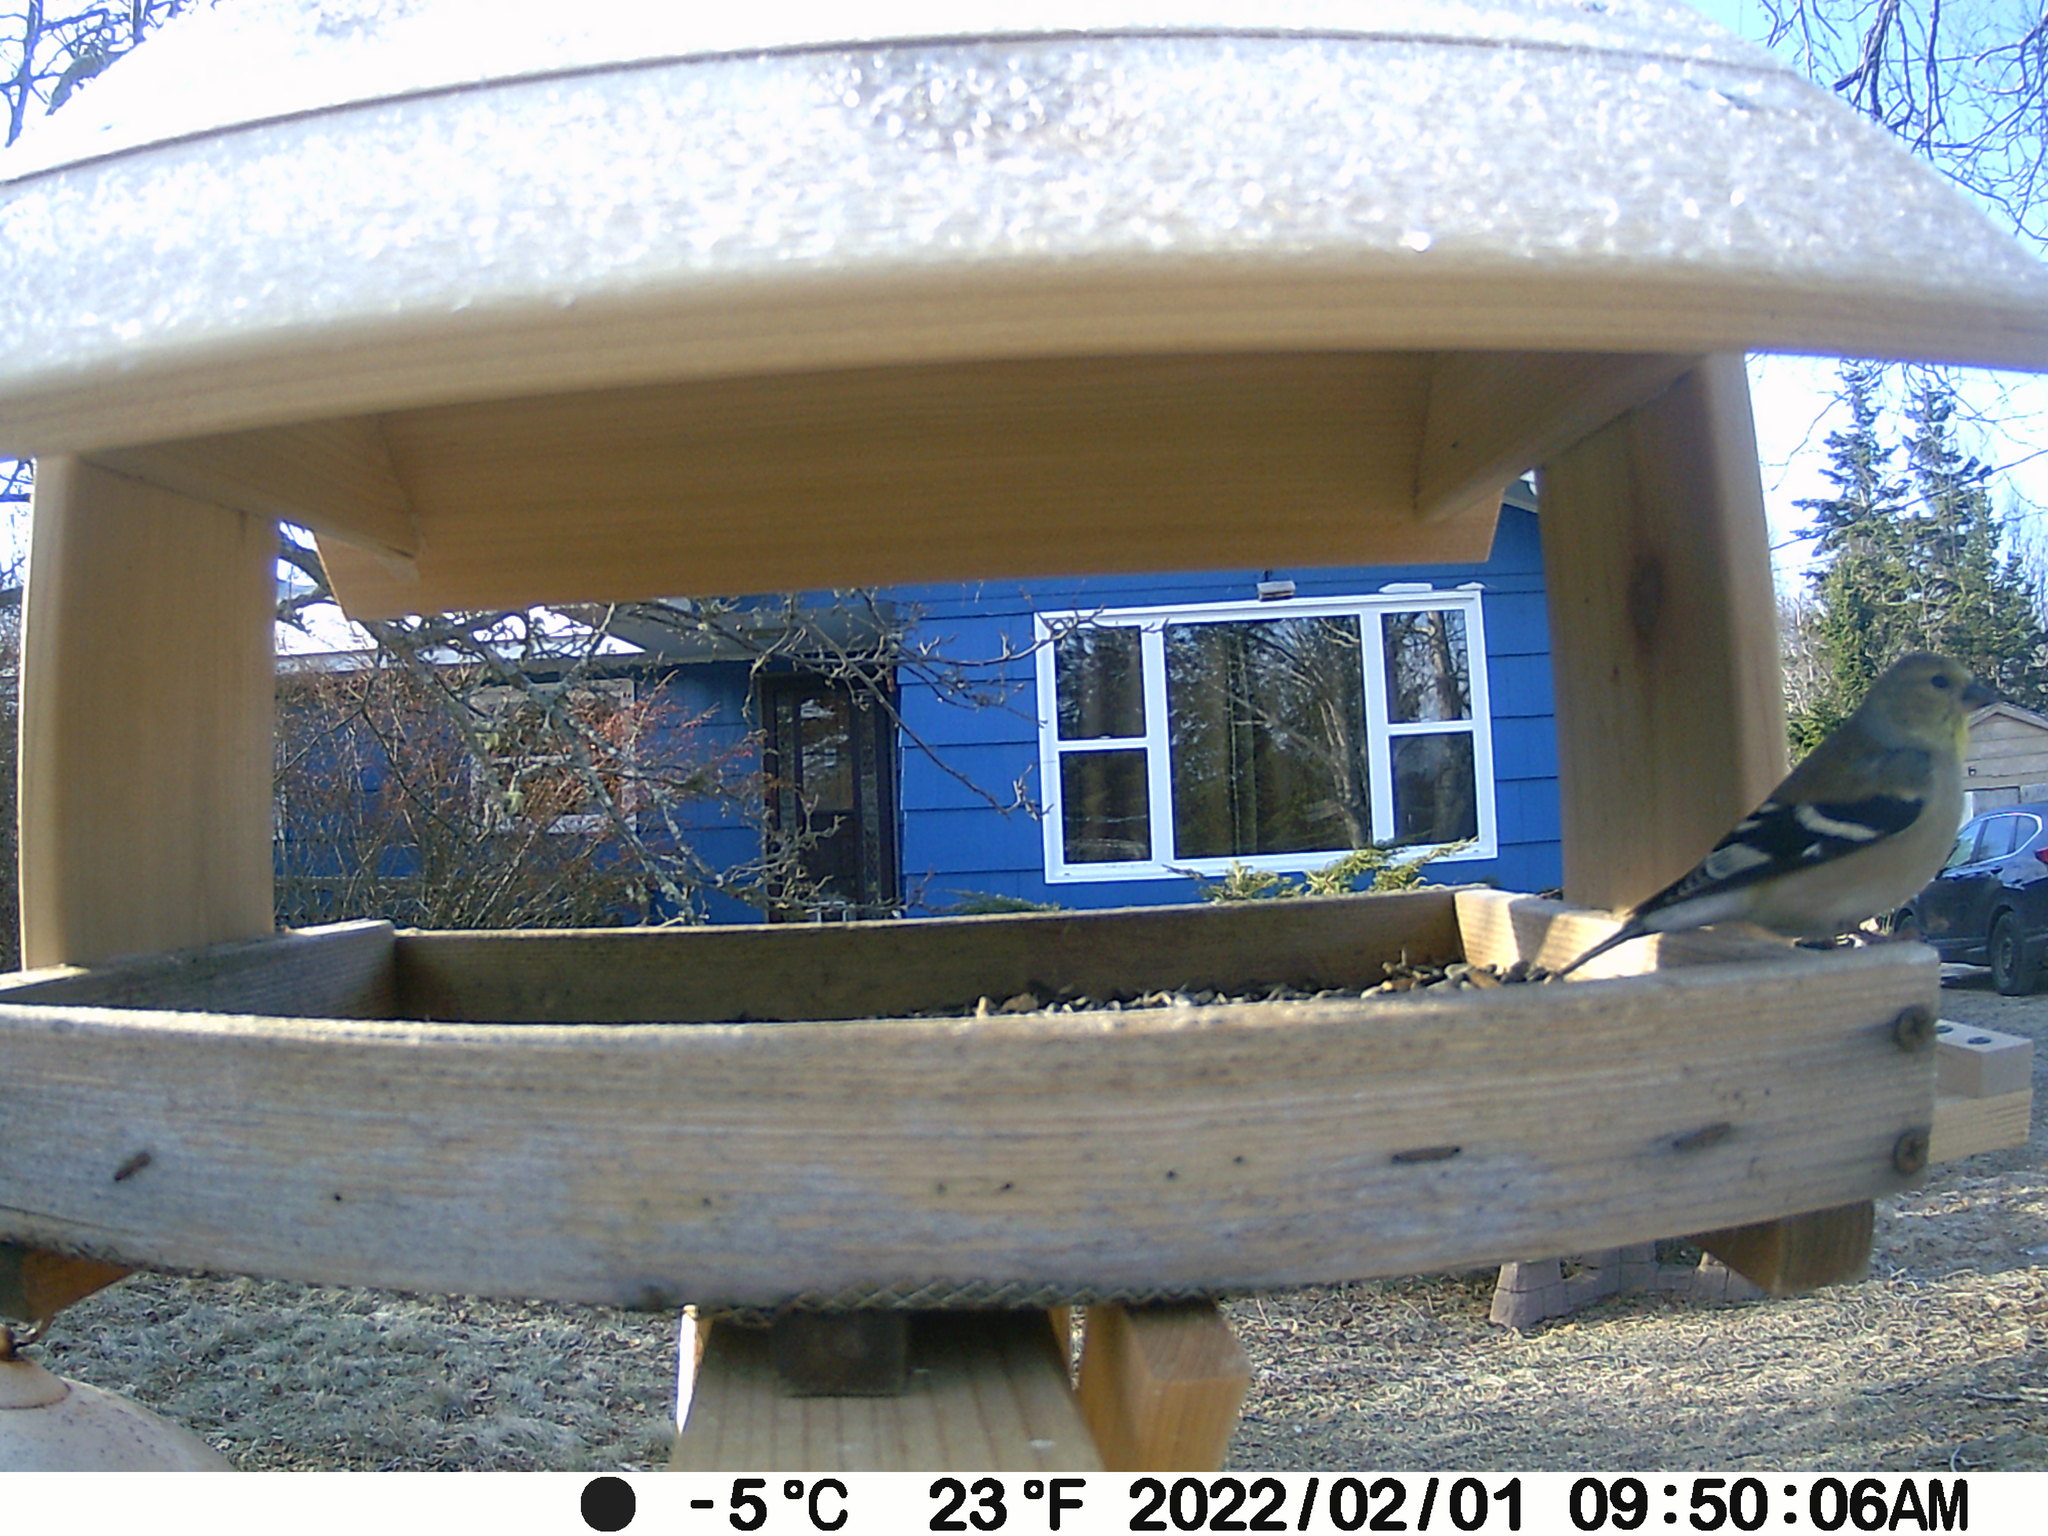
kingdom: Animalia
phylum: Chordata
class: Aves
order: Passeriformes
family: Fringillidae
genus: Spinus
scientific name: Spinus tristis
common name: American goldfinch
